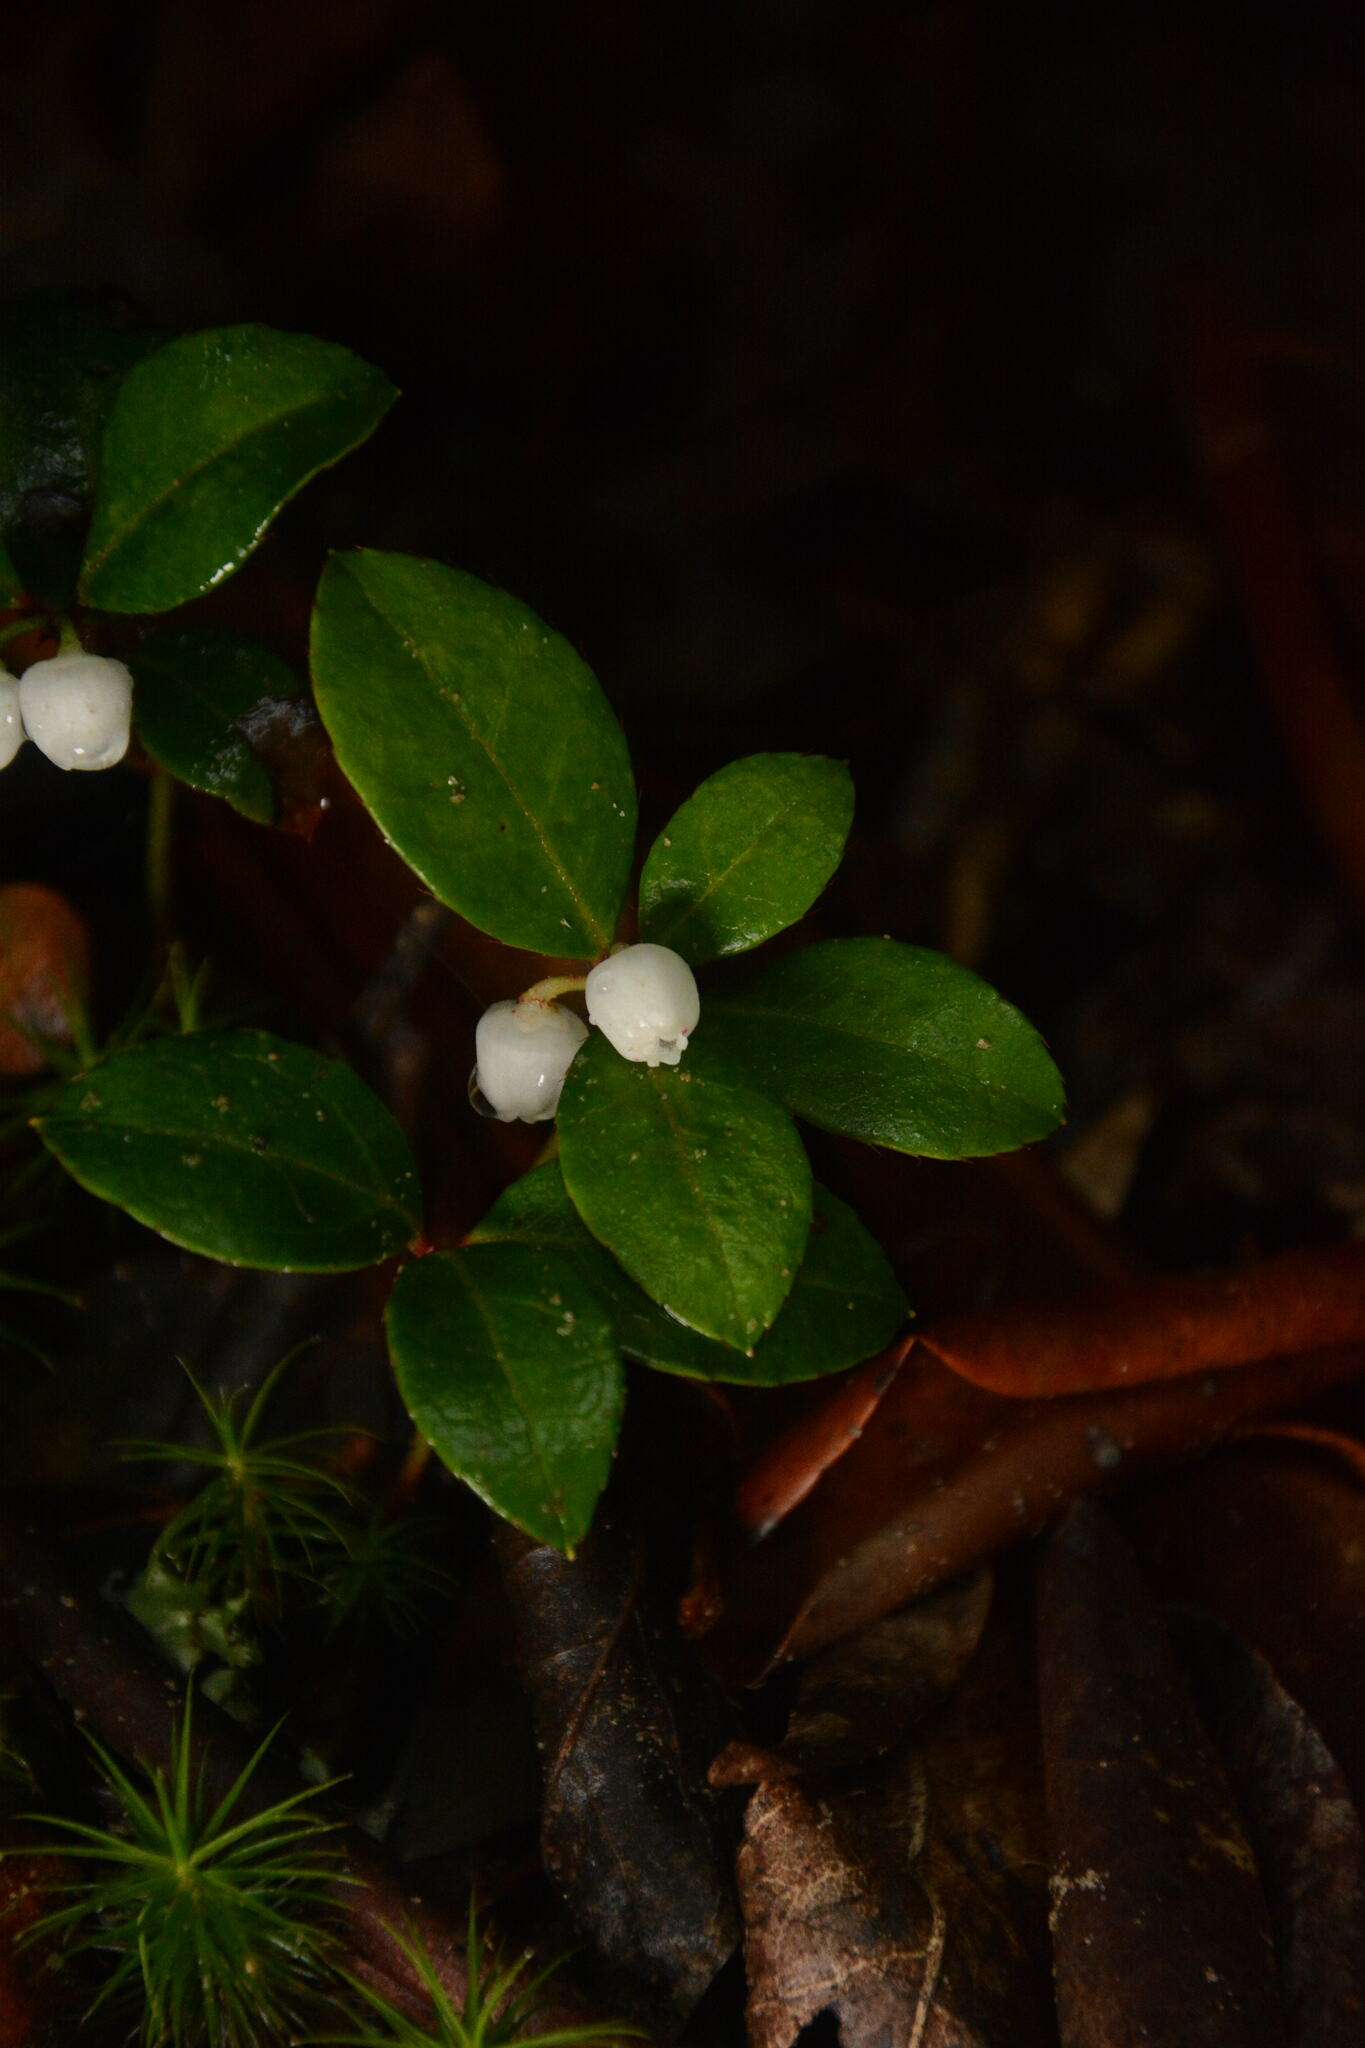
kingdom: Plantae
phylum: Tracheophyta
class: Magnoliopsida
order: Ericales
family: Ericaceae
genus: Gaultheria
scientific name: Gaultheria procumbens
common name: Checkerberry
